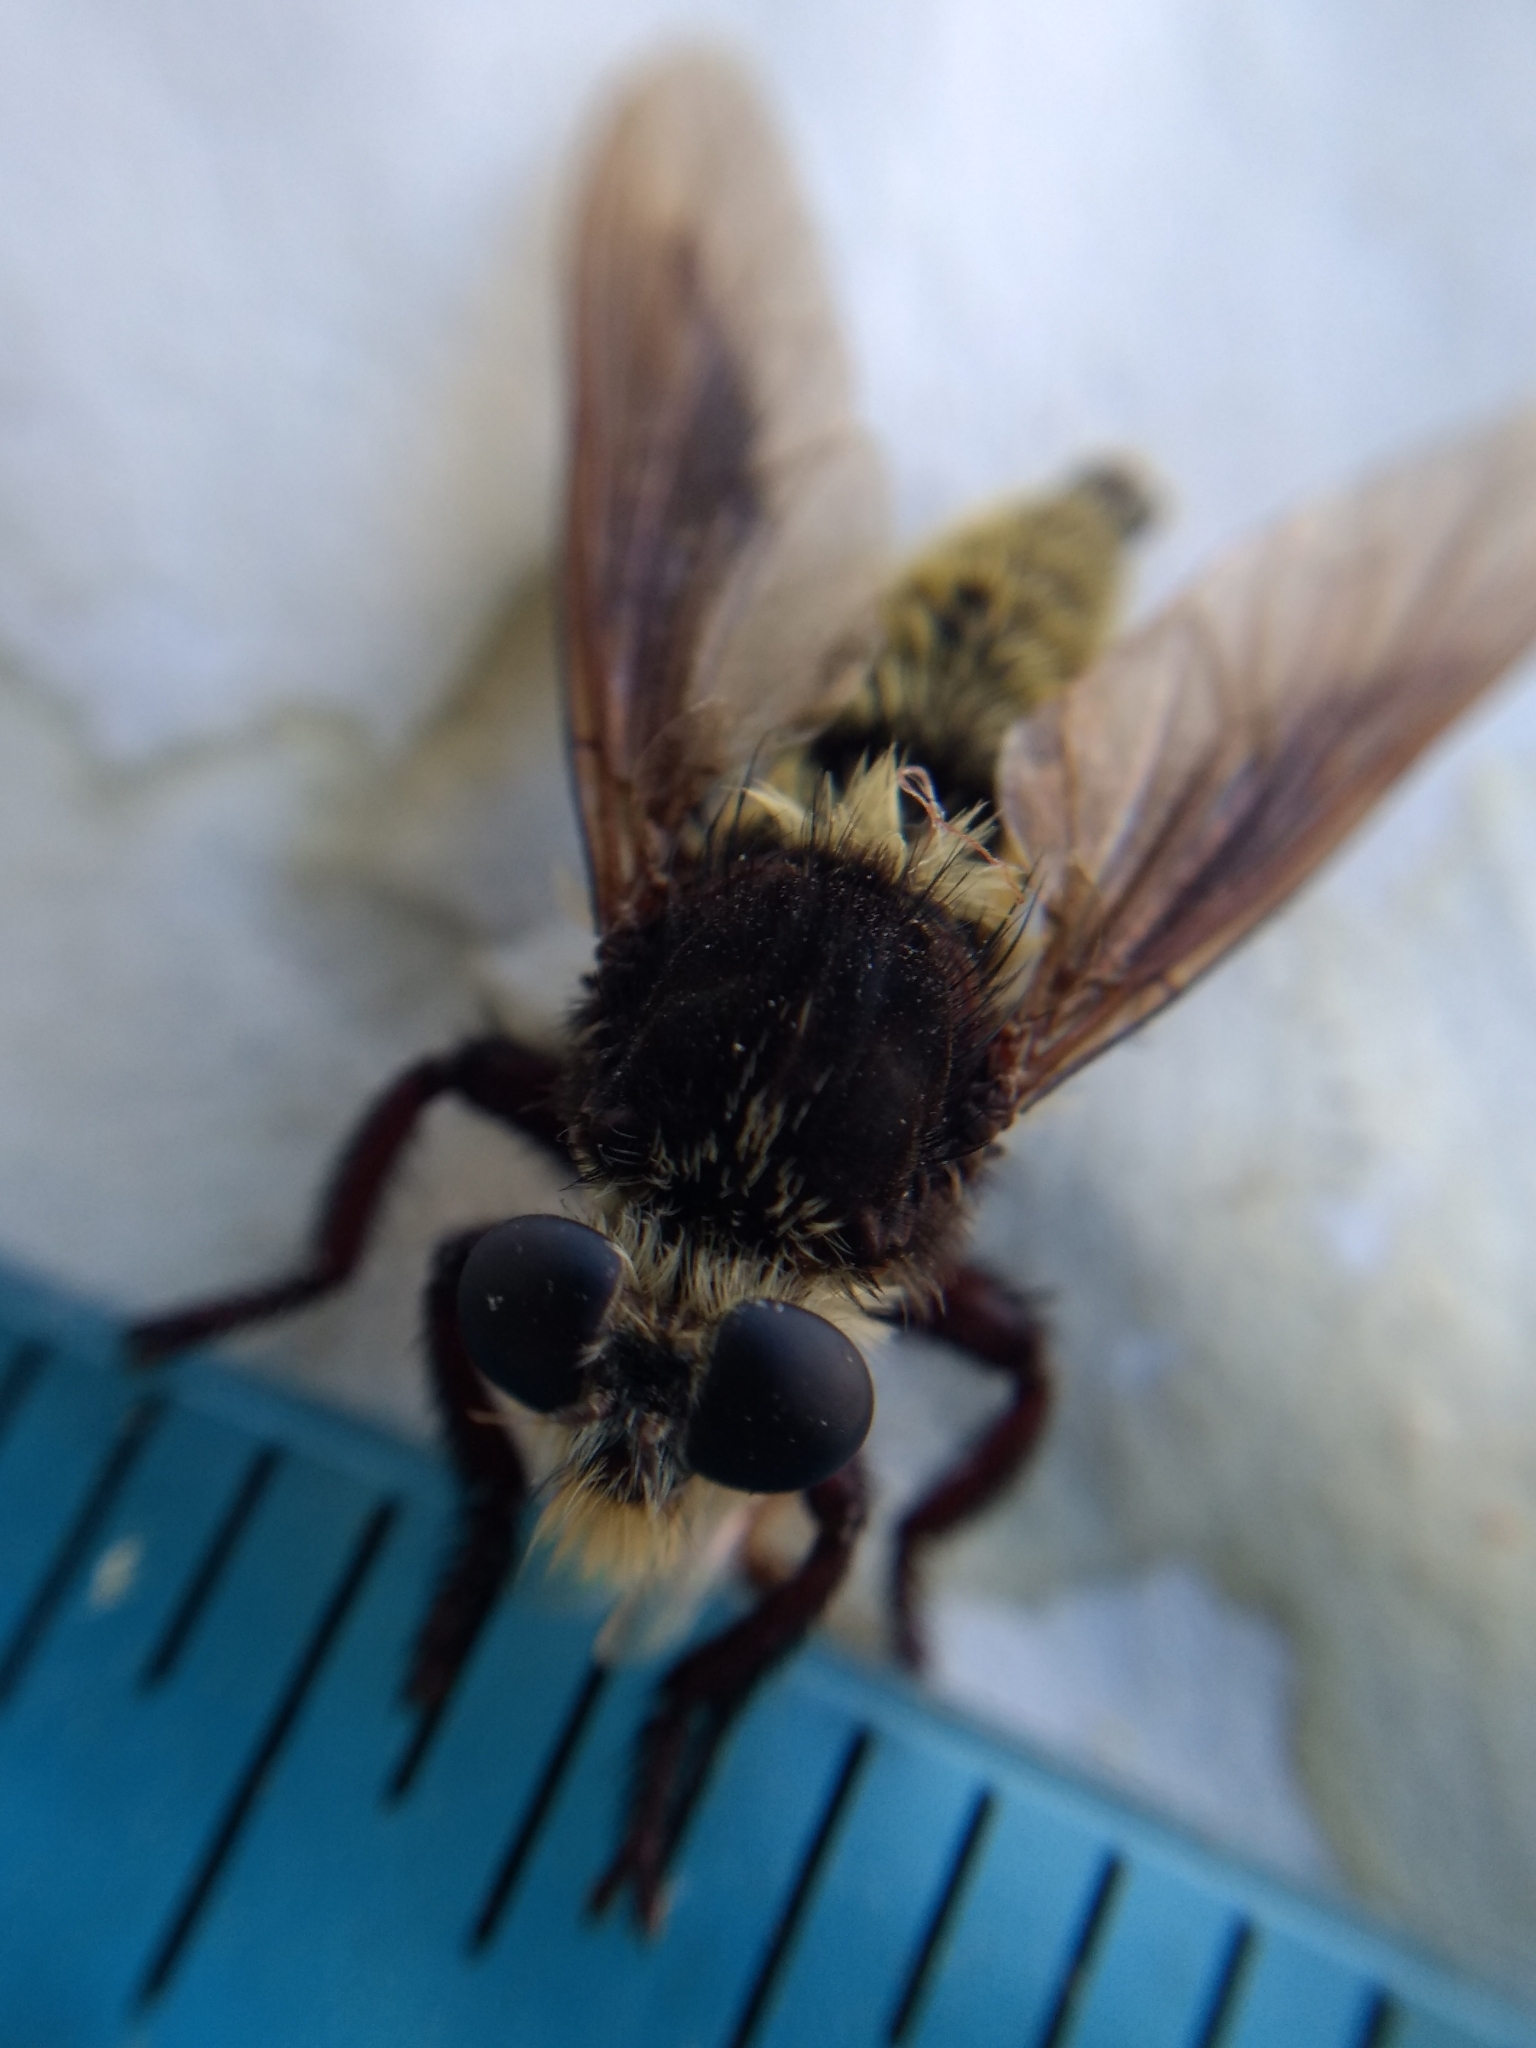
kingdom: Animalia
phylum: Arthropoda
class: Insecta
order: Diptera
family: Asilidae
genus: Mallophora
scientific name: Mallophora fautrix
